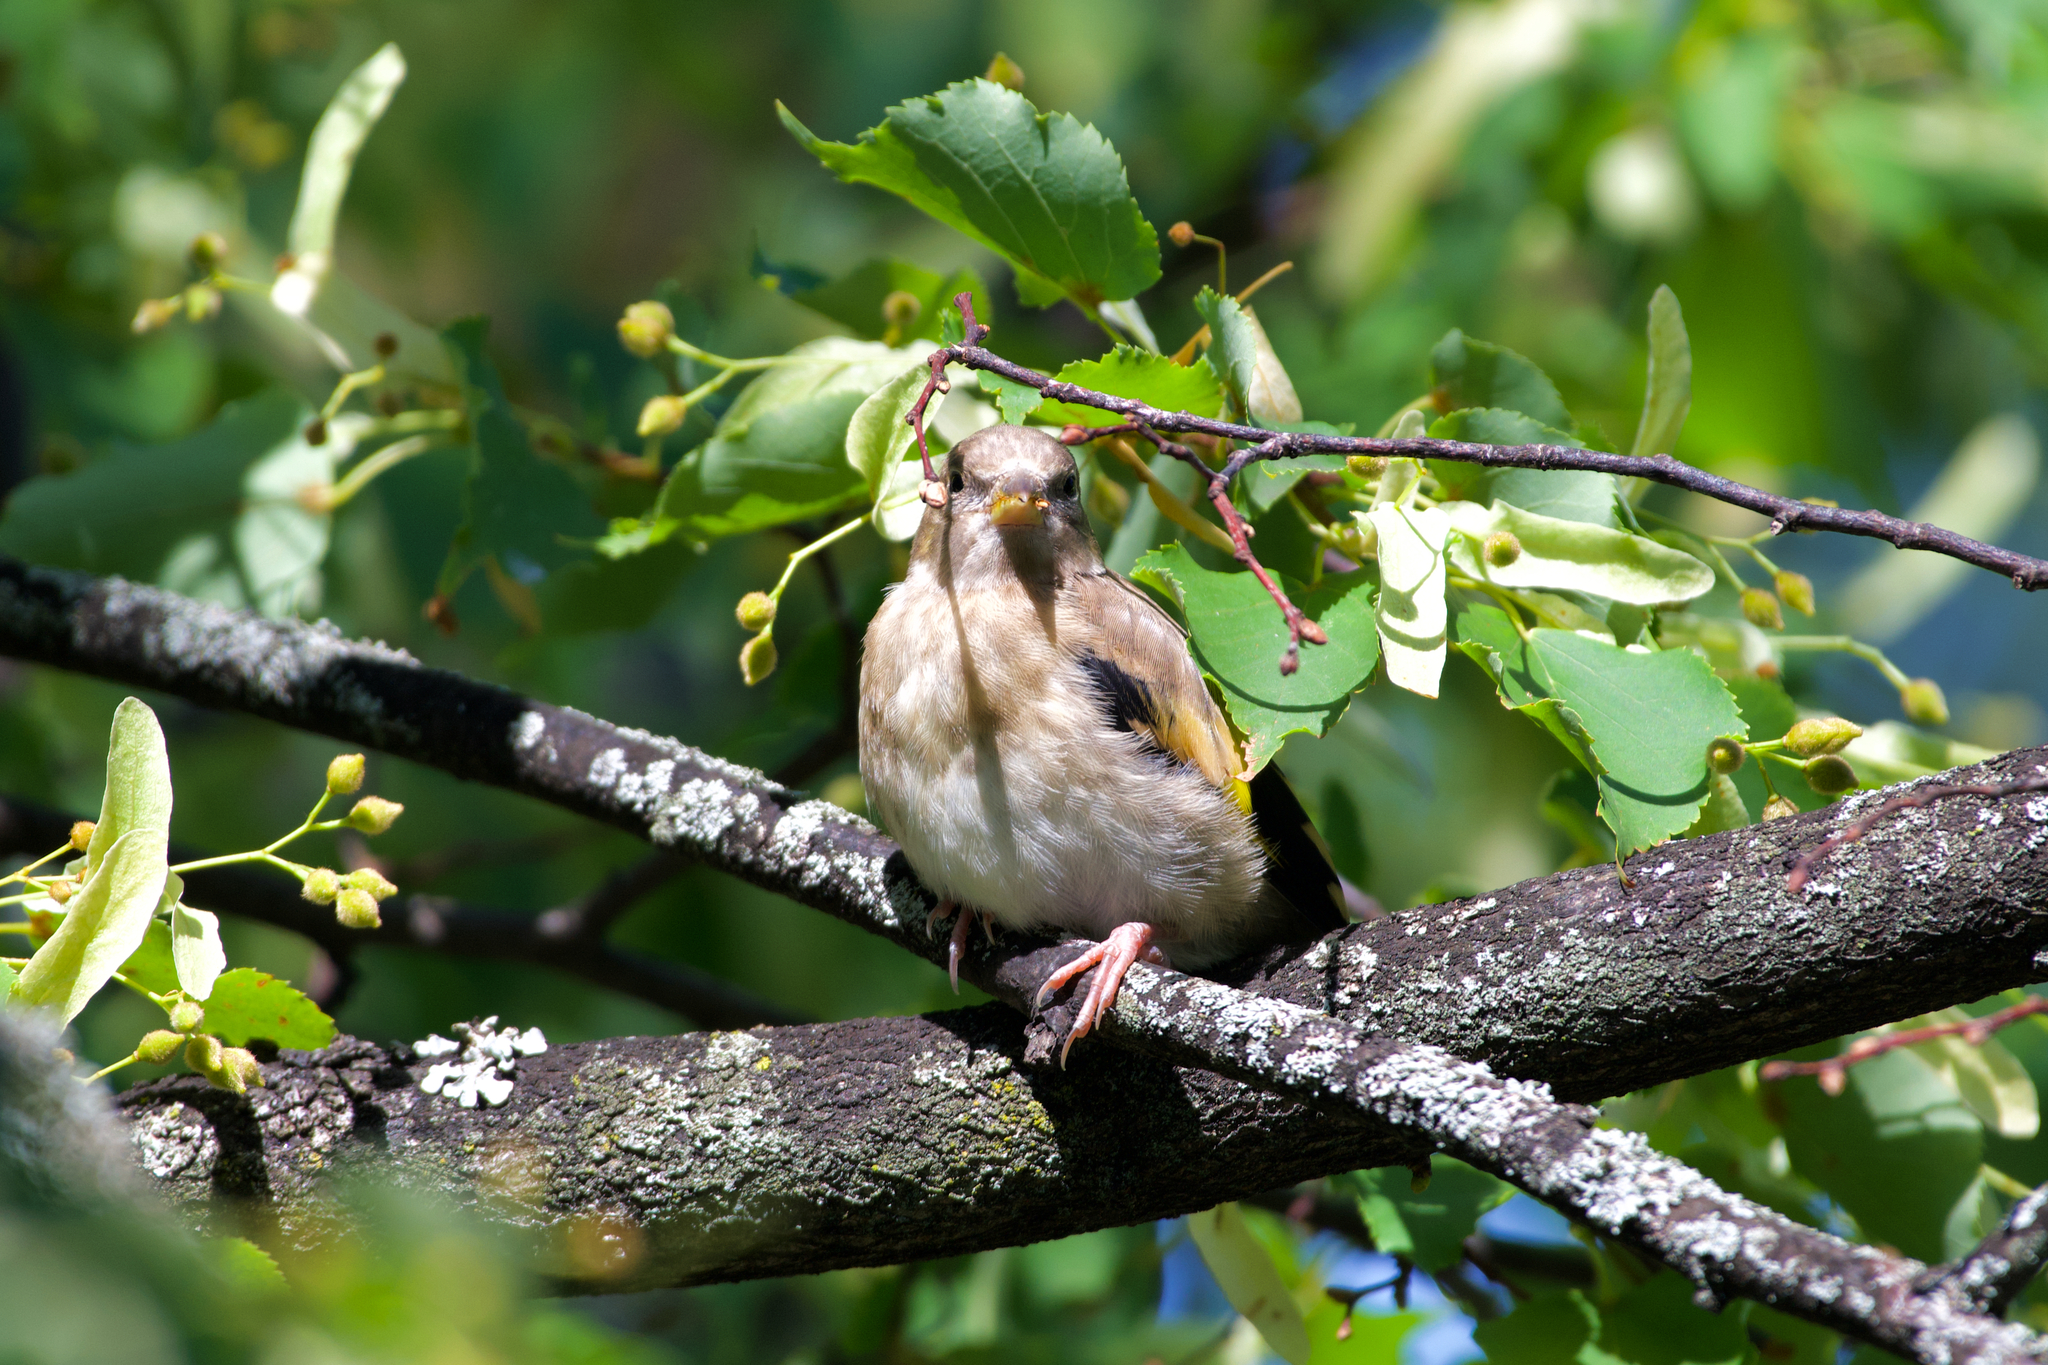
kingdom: Animalia
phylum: Chordata
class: Aves
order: Passeriformes
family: Fringillidae
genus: Carduelis
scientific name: Carduelis carduelis
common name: European goldfinch
